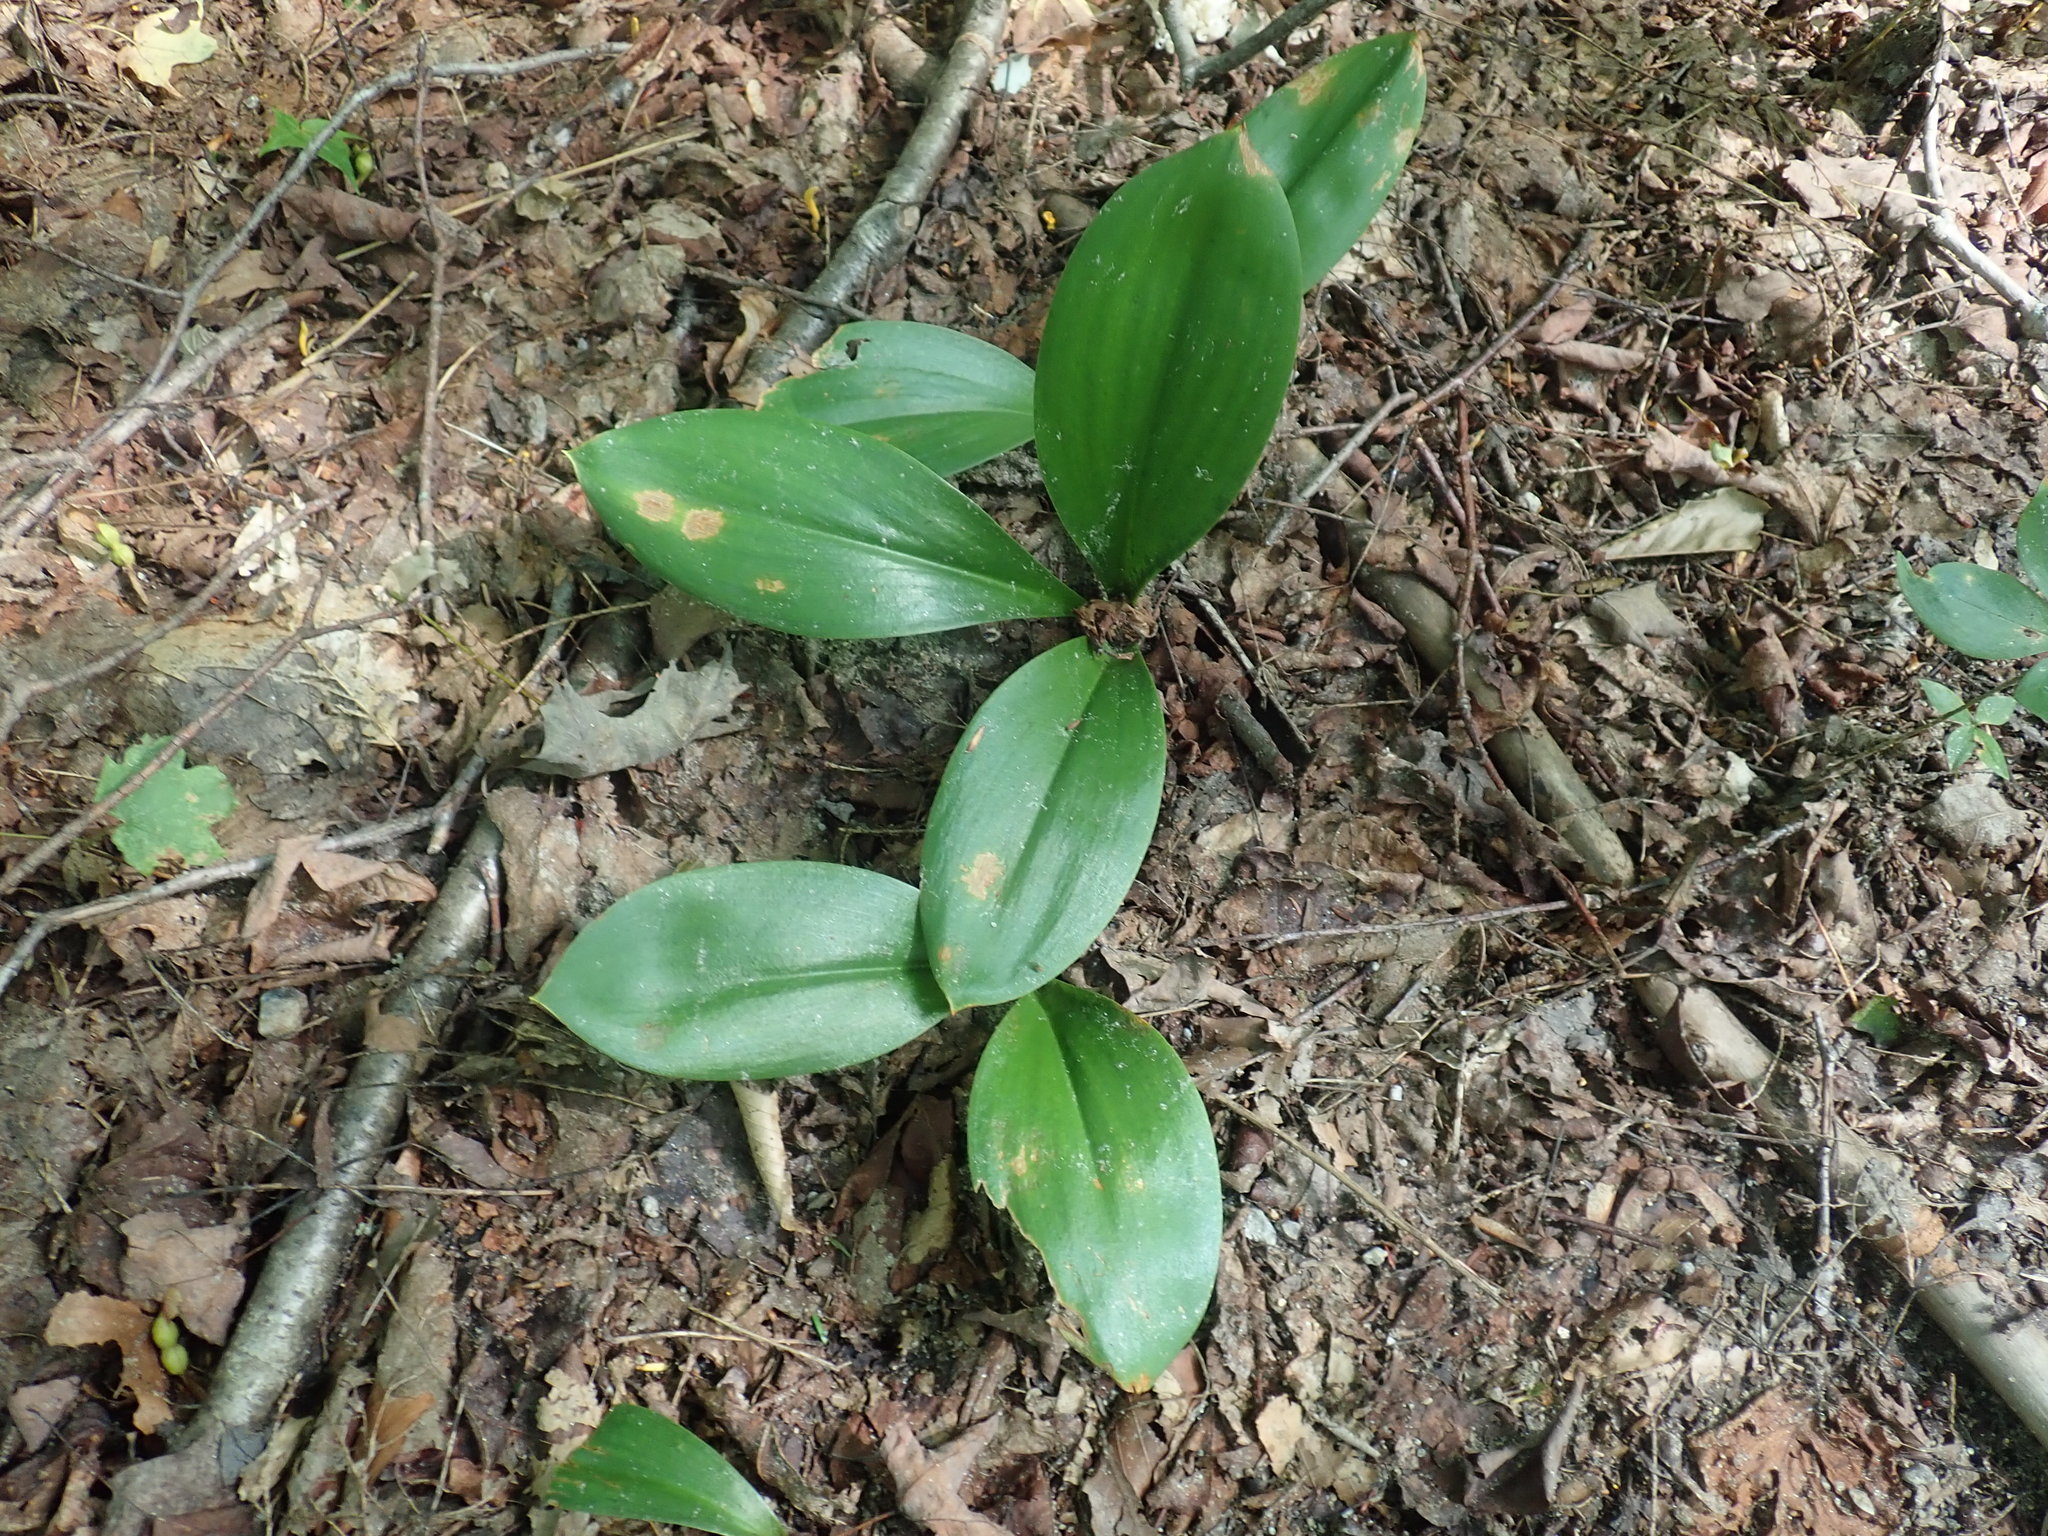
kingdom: Plantae
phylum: Tracheophyta
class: Liliopsida
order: Liliales
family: Liliaceae
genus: Clintonia
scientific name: Clintonia borealis
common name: Yellow clintonia
